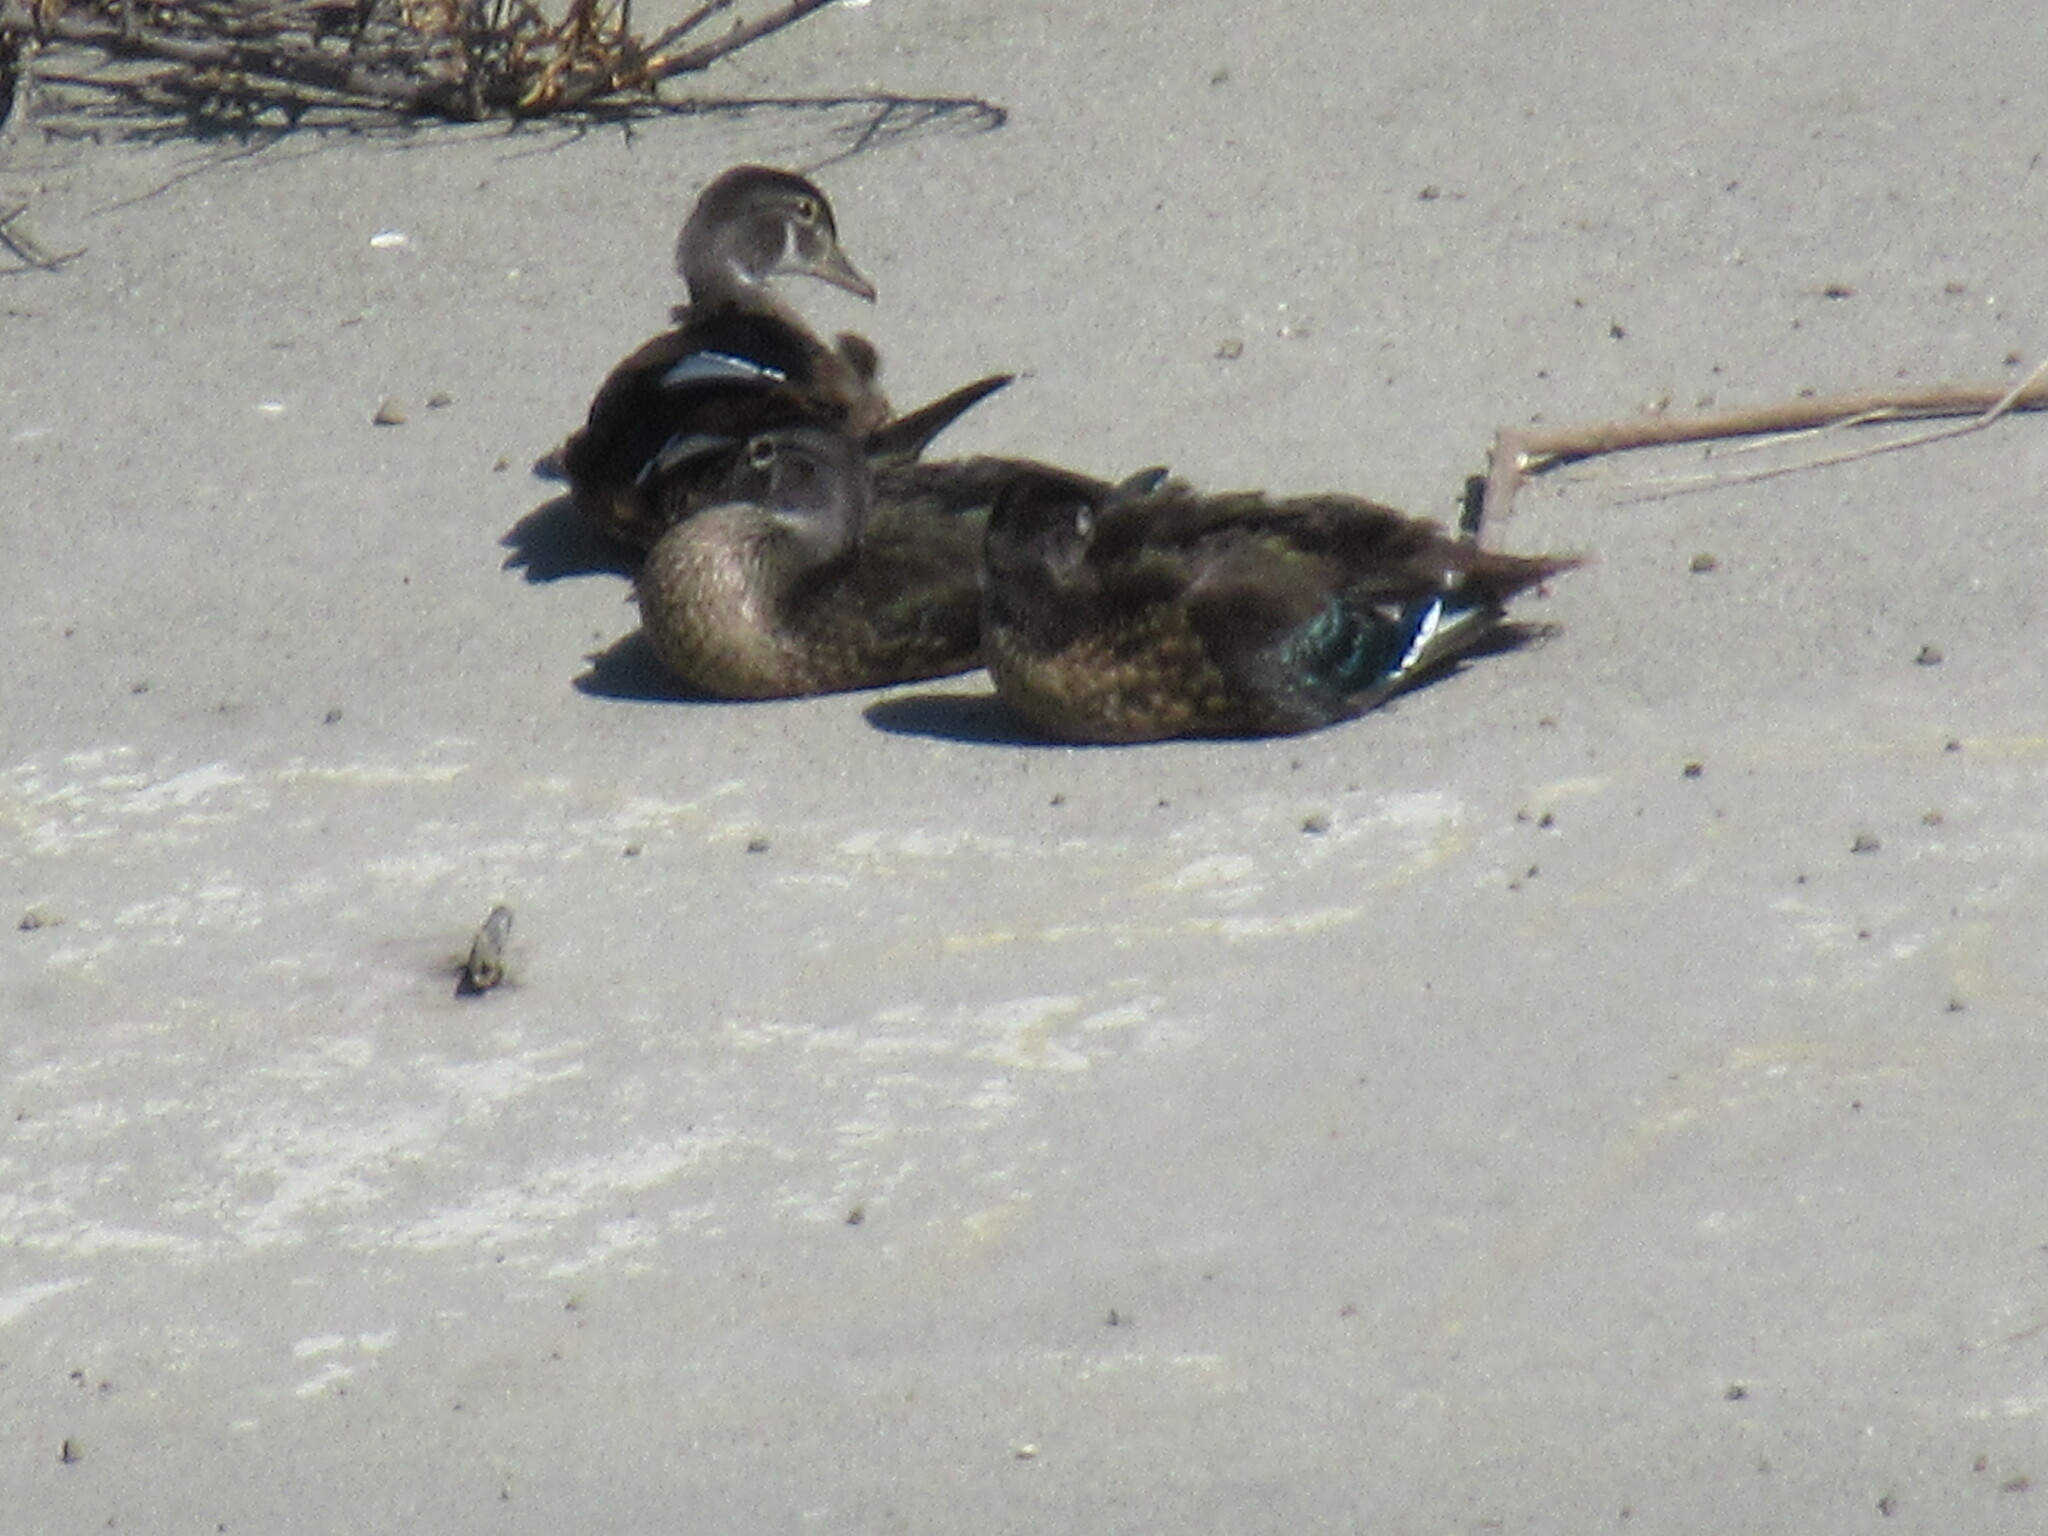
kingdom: Animalia
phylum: Chordata
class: Aves
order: Anseriformes
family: Anatidae
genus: Aix
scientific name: Aix sponsa
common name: Wood duck
